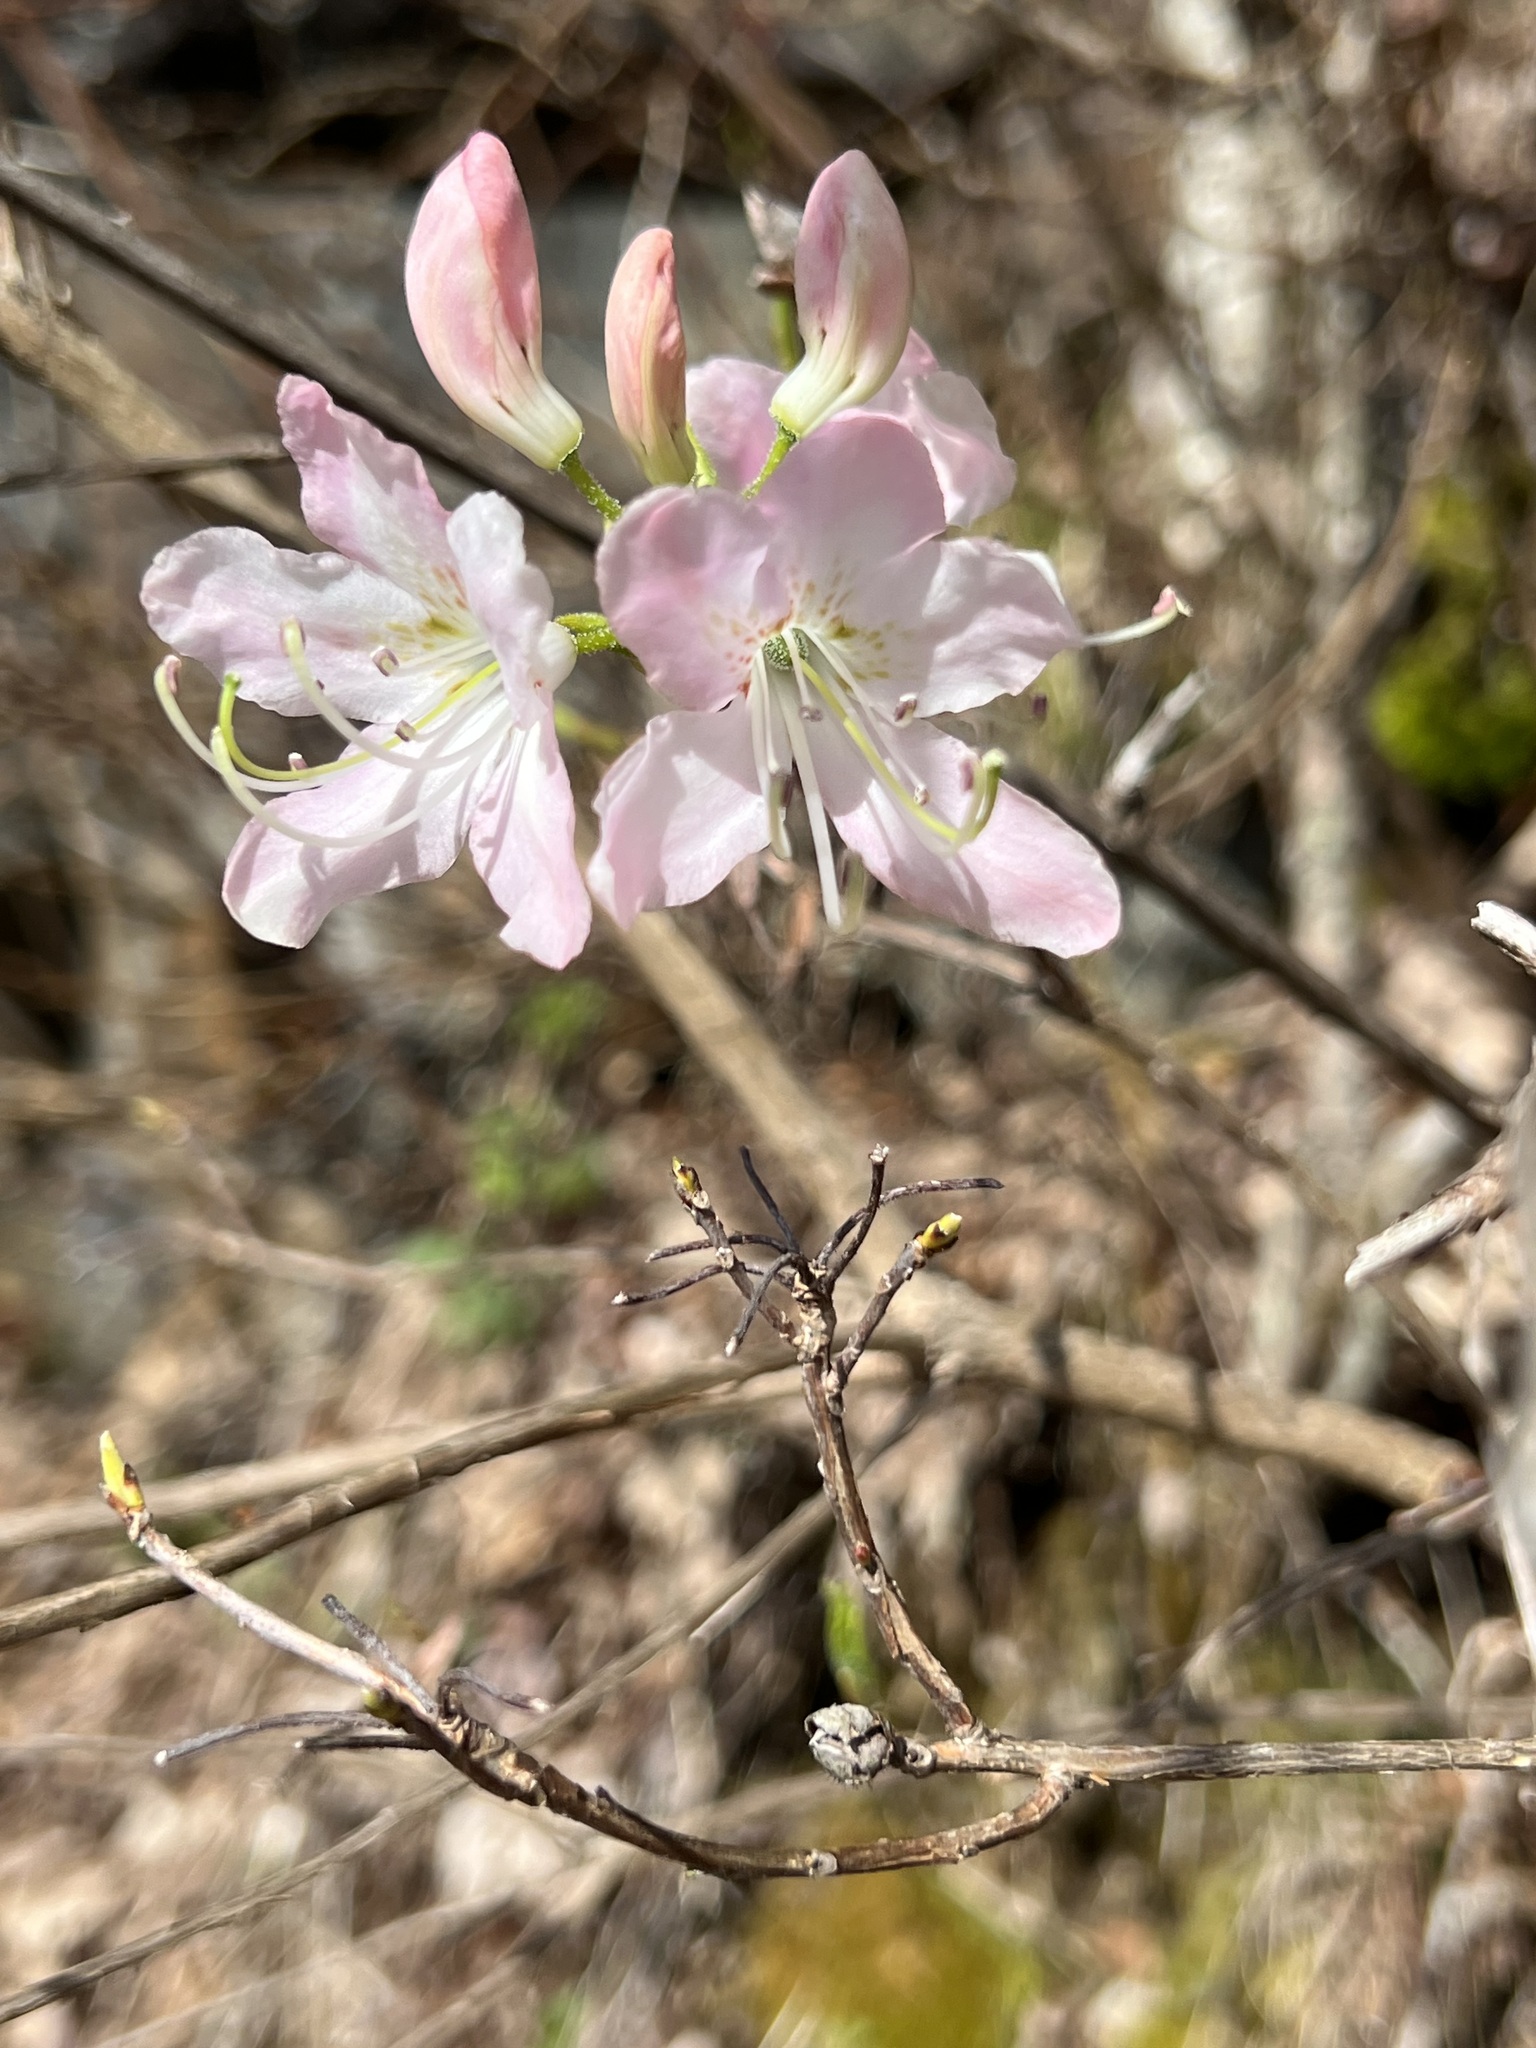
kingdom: Plantae
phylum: Tracheophyta
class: Magnoliopsida
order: Ericales
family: Ericaceae
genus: Rhododendron
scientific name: Rhododendron vaseyi
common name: Pink-shell azalea
